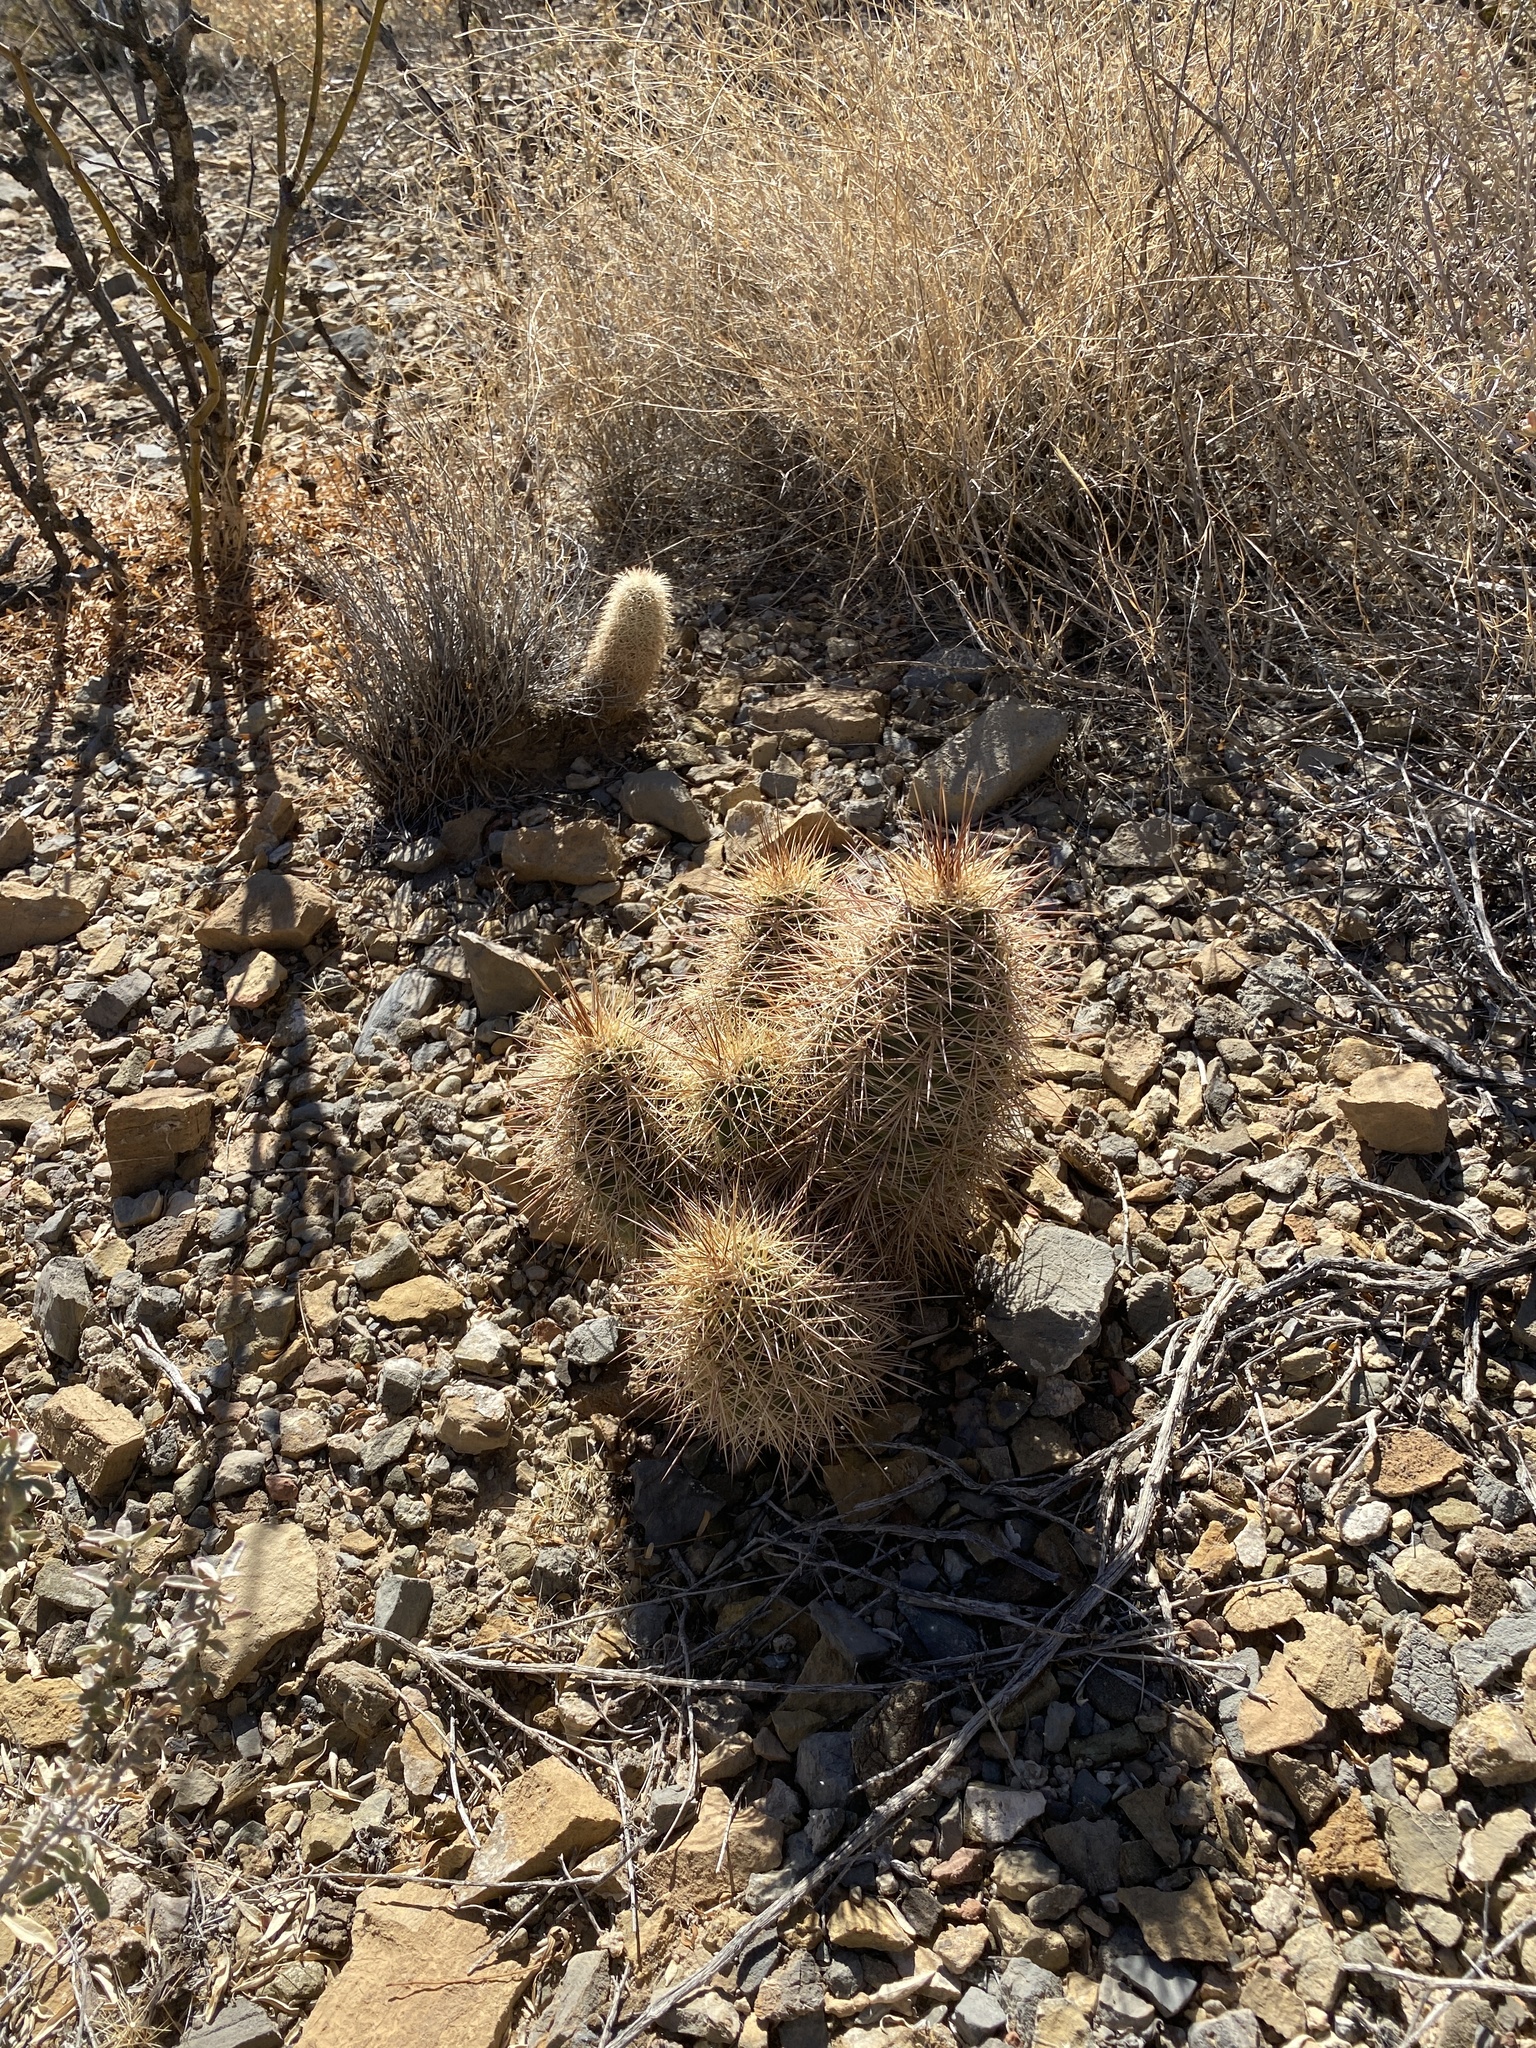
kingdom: Plantae
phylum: Tracheophyta
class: Magnoliopsida
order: Caryophyllales
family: Cactaceae
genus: Echinocereus
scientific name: Echinocereus coccineus
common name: Scarlet hedgehog cactus
